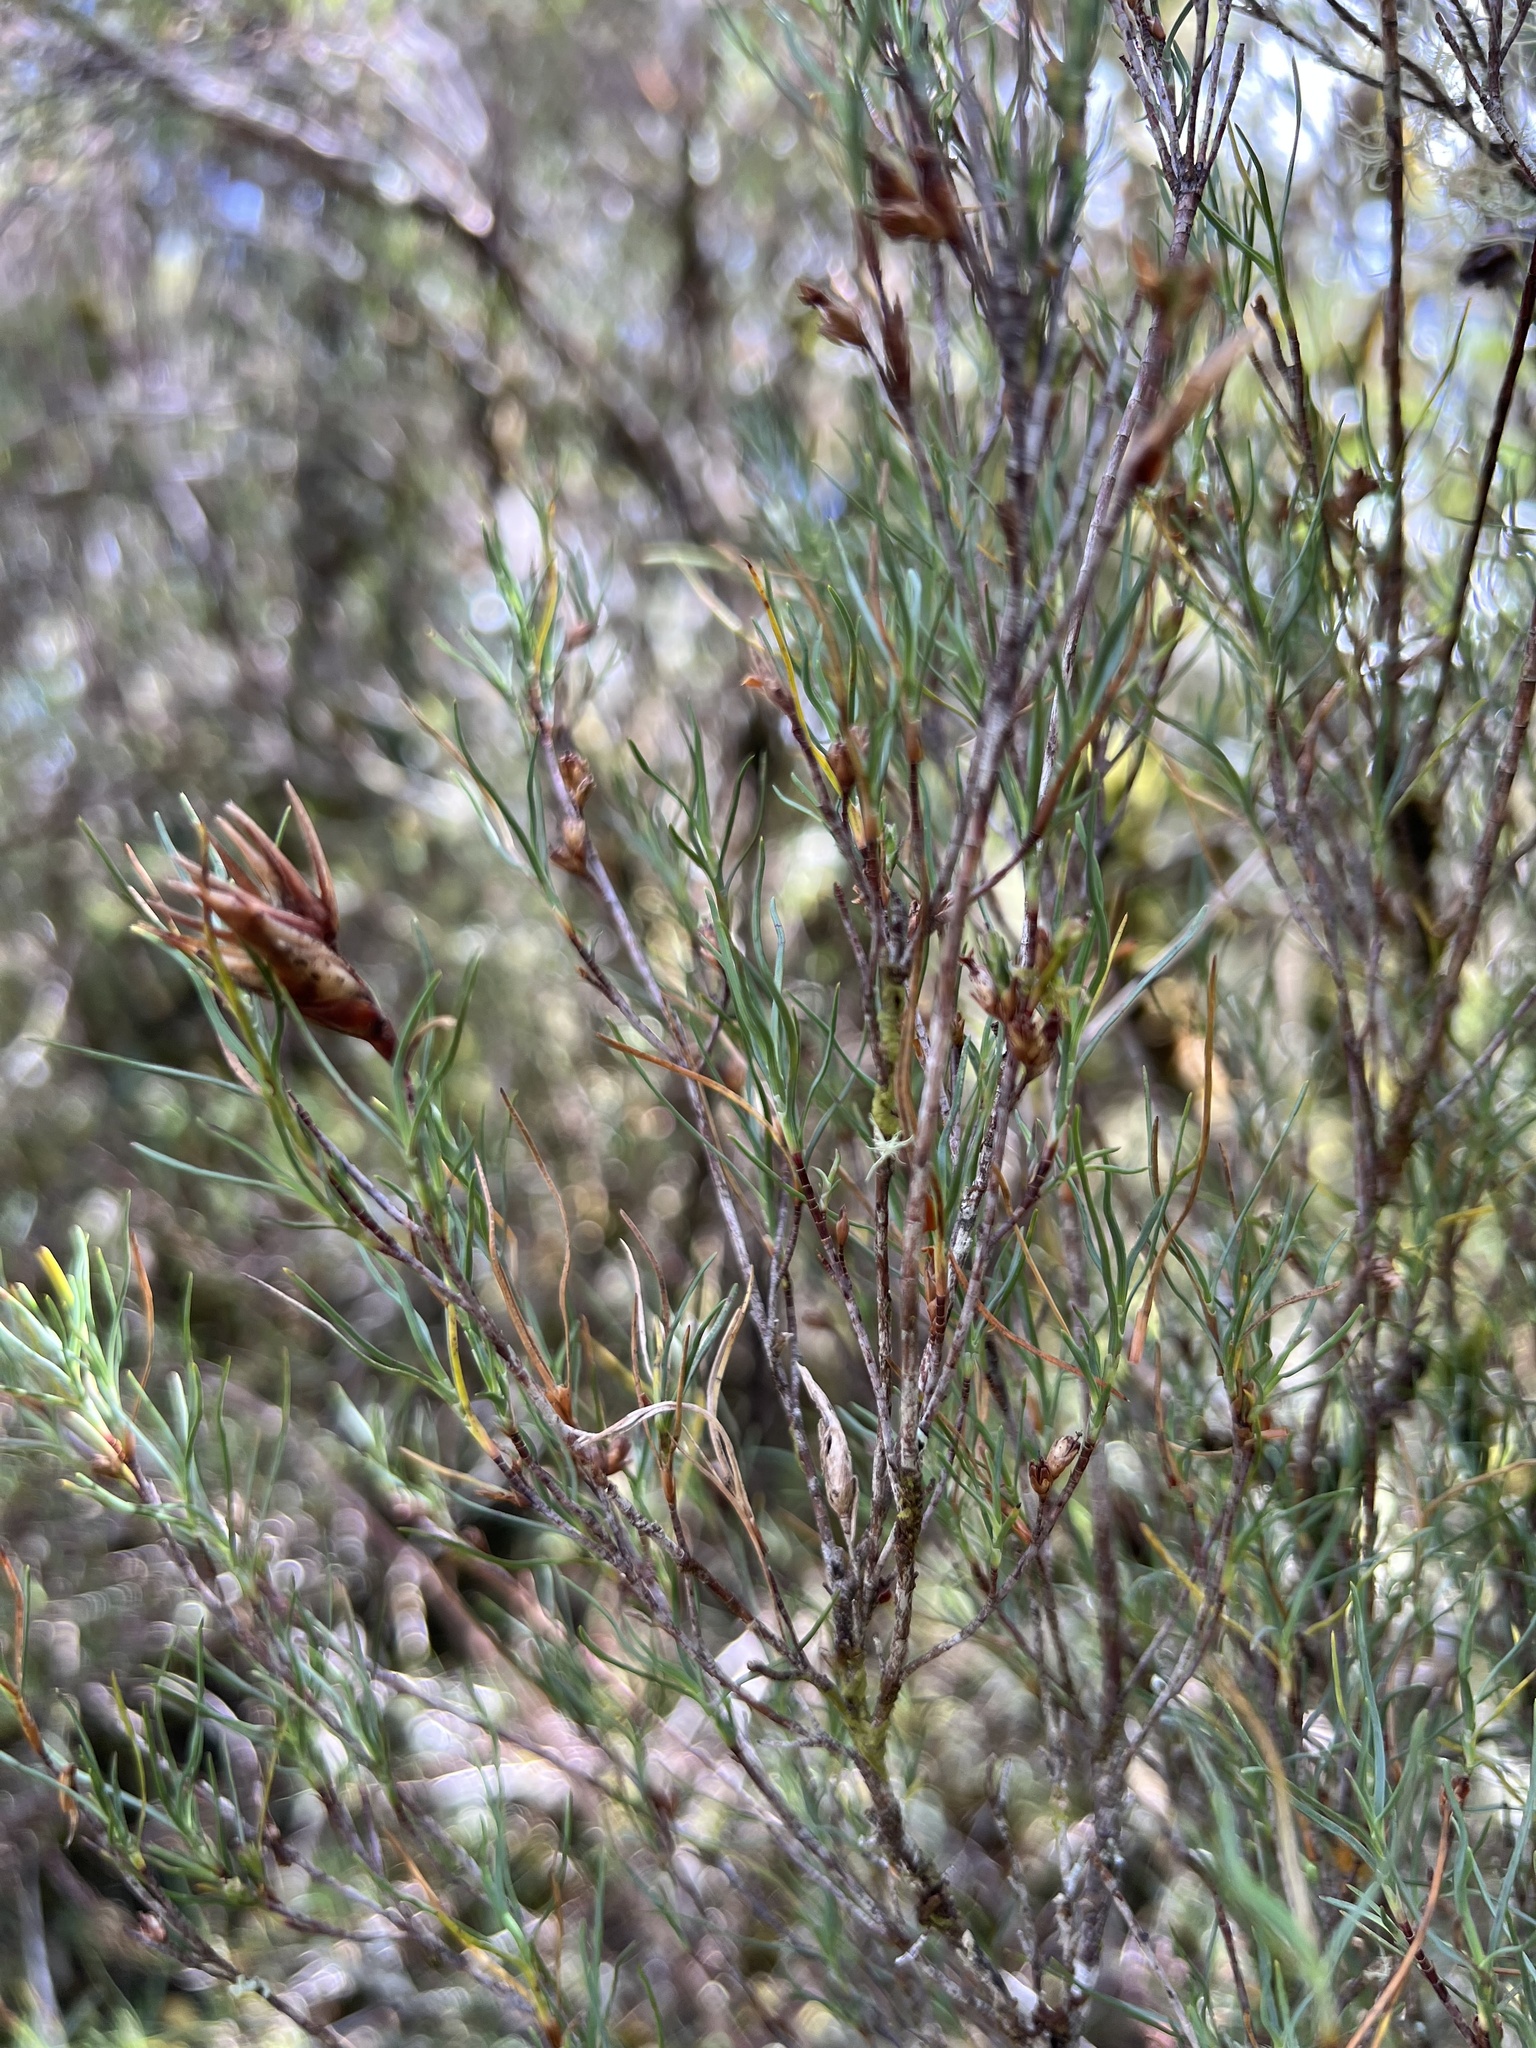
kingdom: Plantae
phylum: Tracheophyta
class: Magnoliopsida
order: Ericales
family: Ericaceae
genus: Dracophyllum
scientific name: Dracophyllum subulatum
